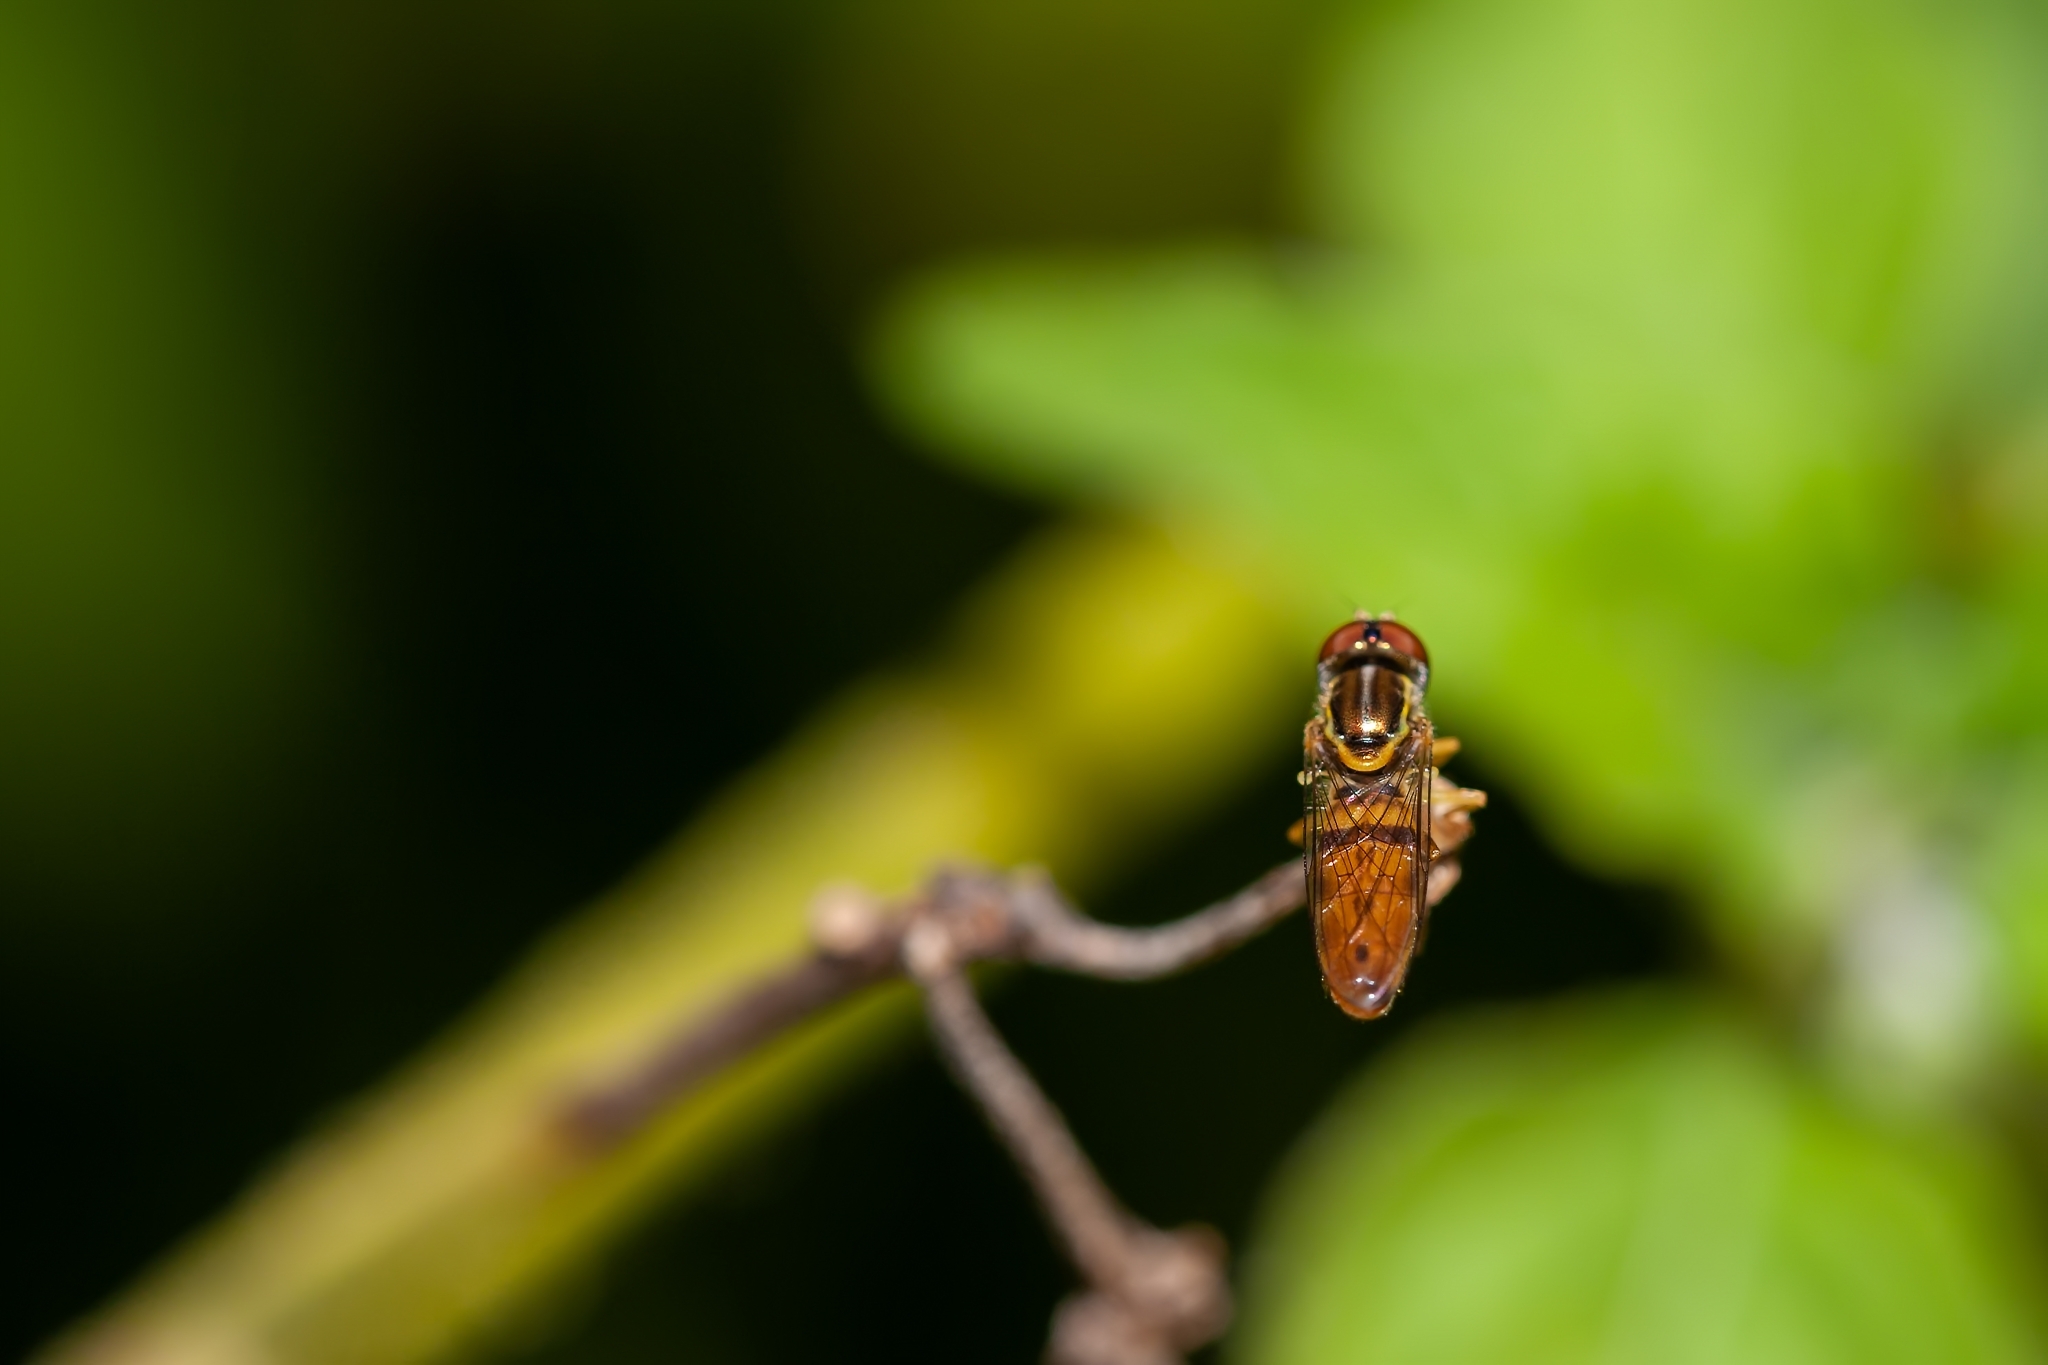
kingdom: Animalia
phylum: Arthropoda
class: Insecta
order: Diptera
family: Syrphidae
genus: Toxomerus
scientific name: Toxomerus floralis
